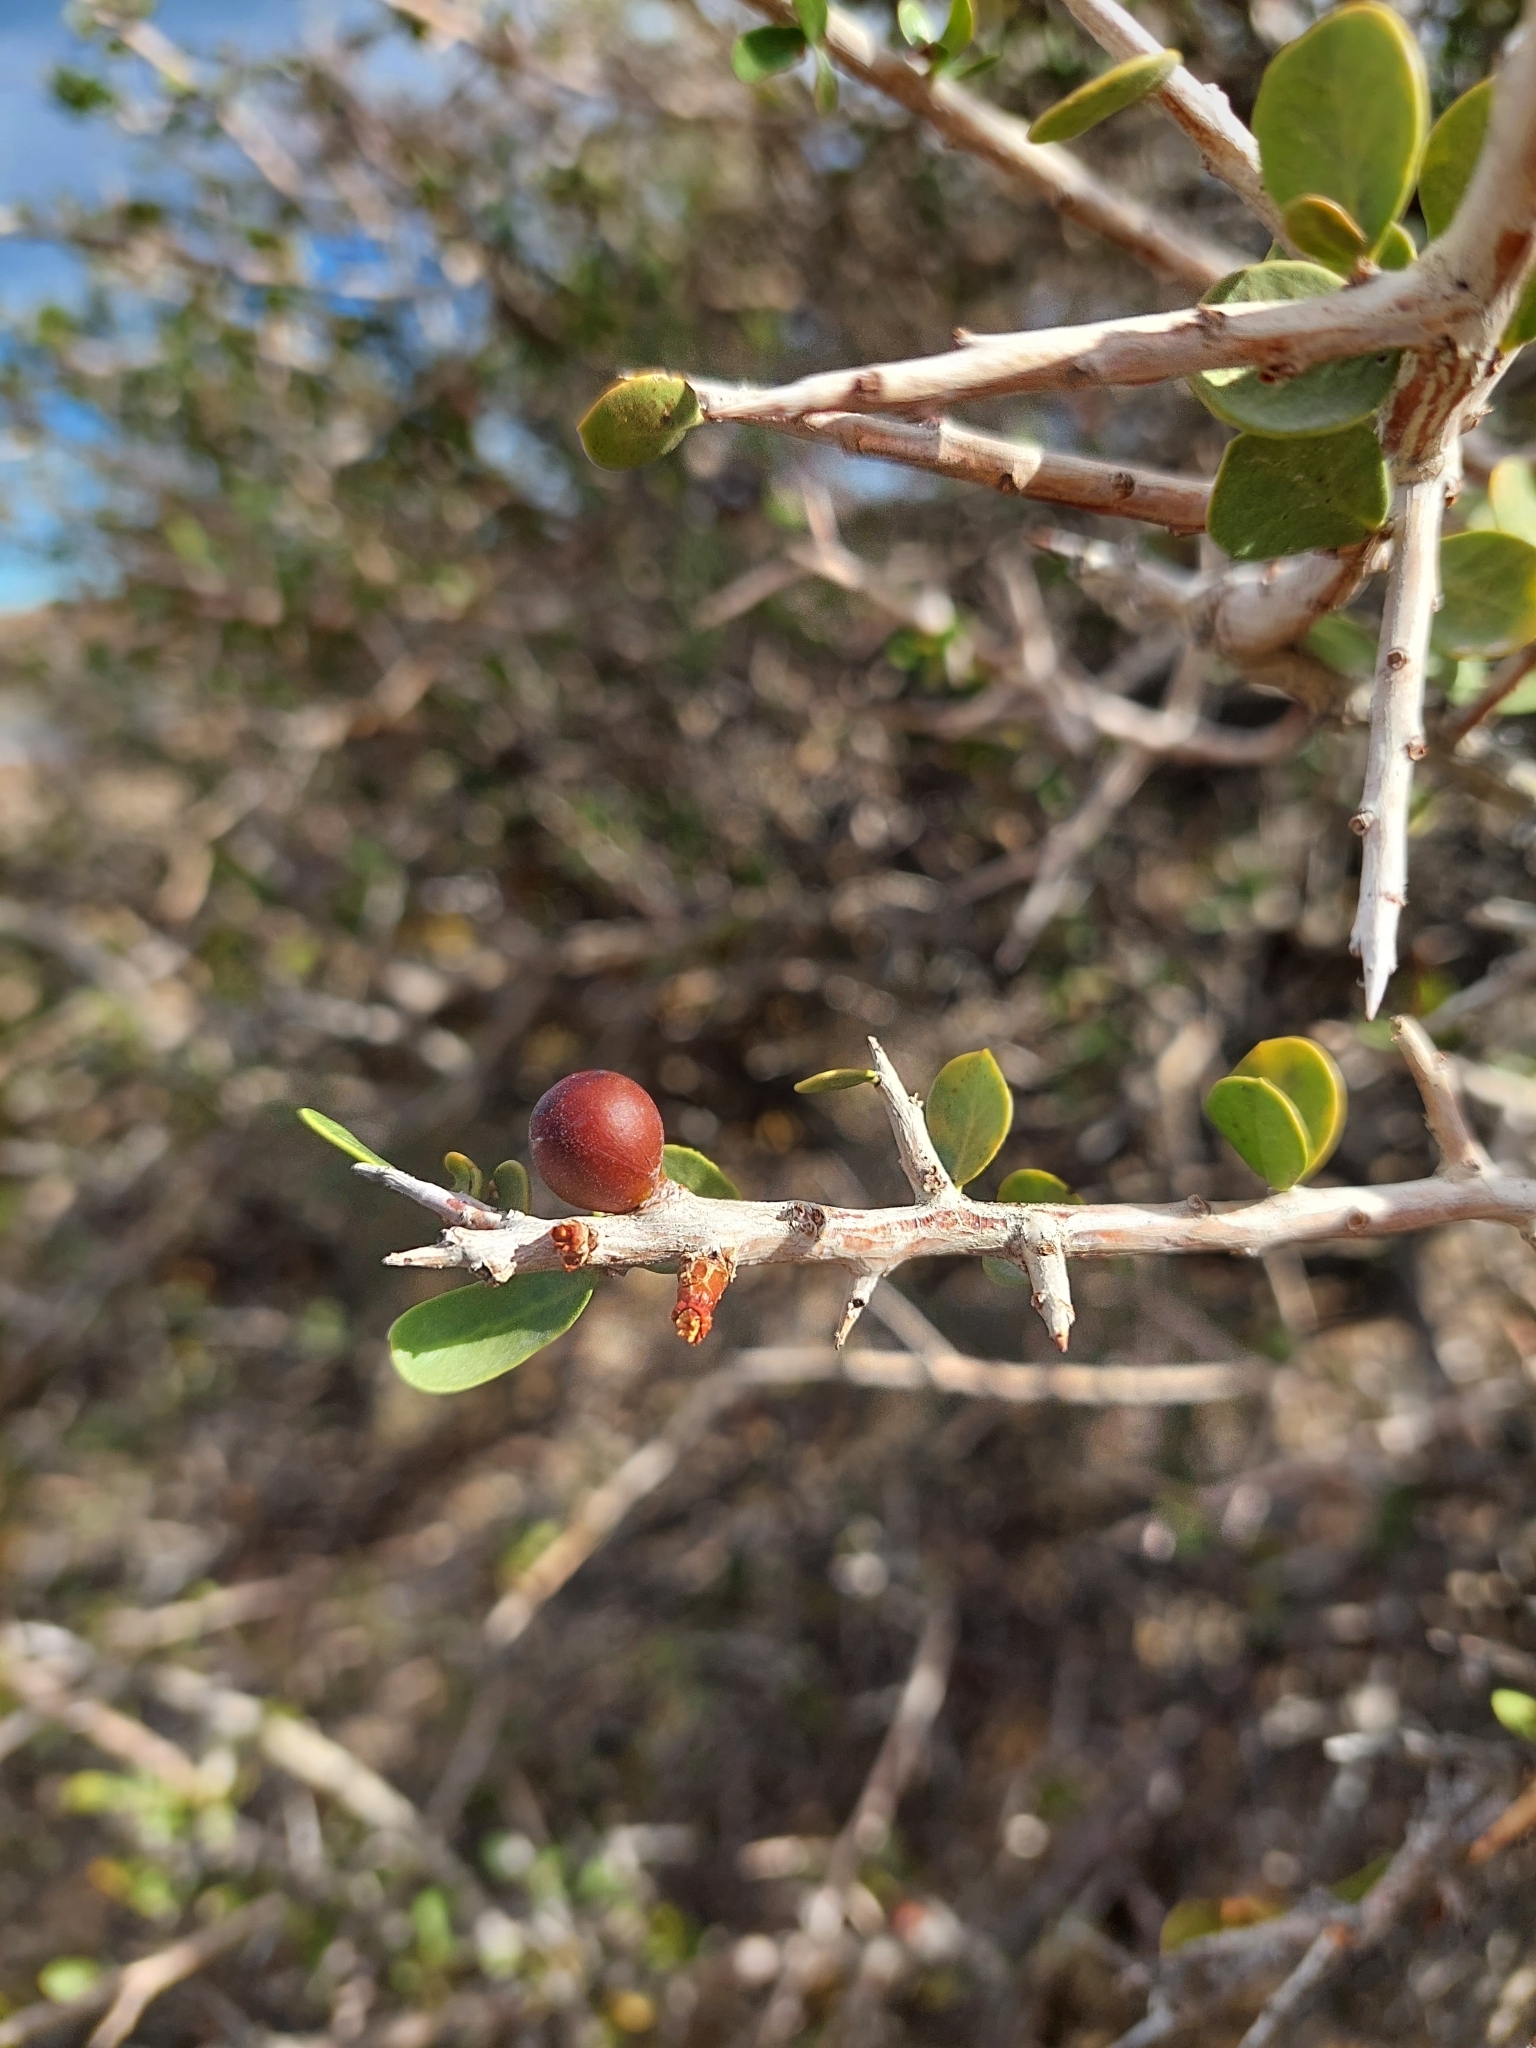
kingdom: Plantae
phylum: Tracheophyta
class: Magnoliopsida
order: Sapindales
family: Anacardiaceae
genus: Schinus
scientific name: Schinus johnstonii
